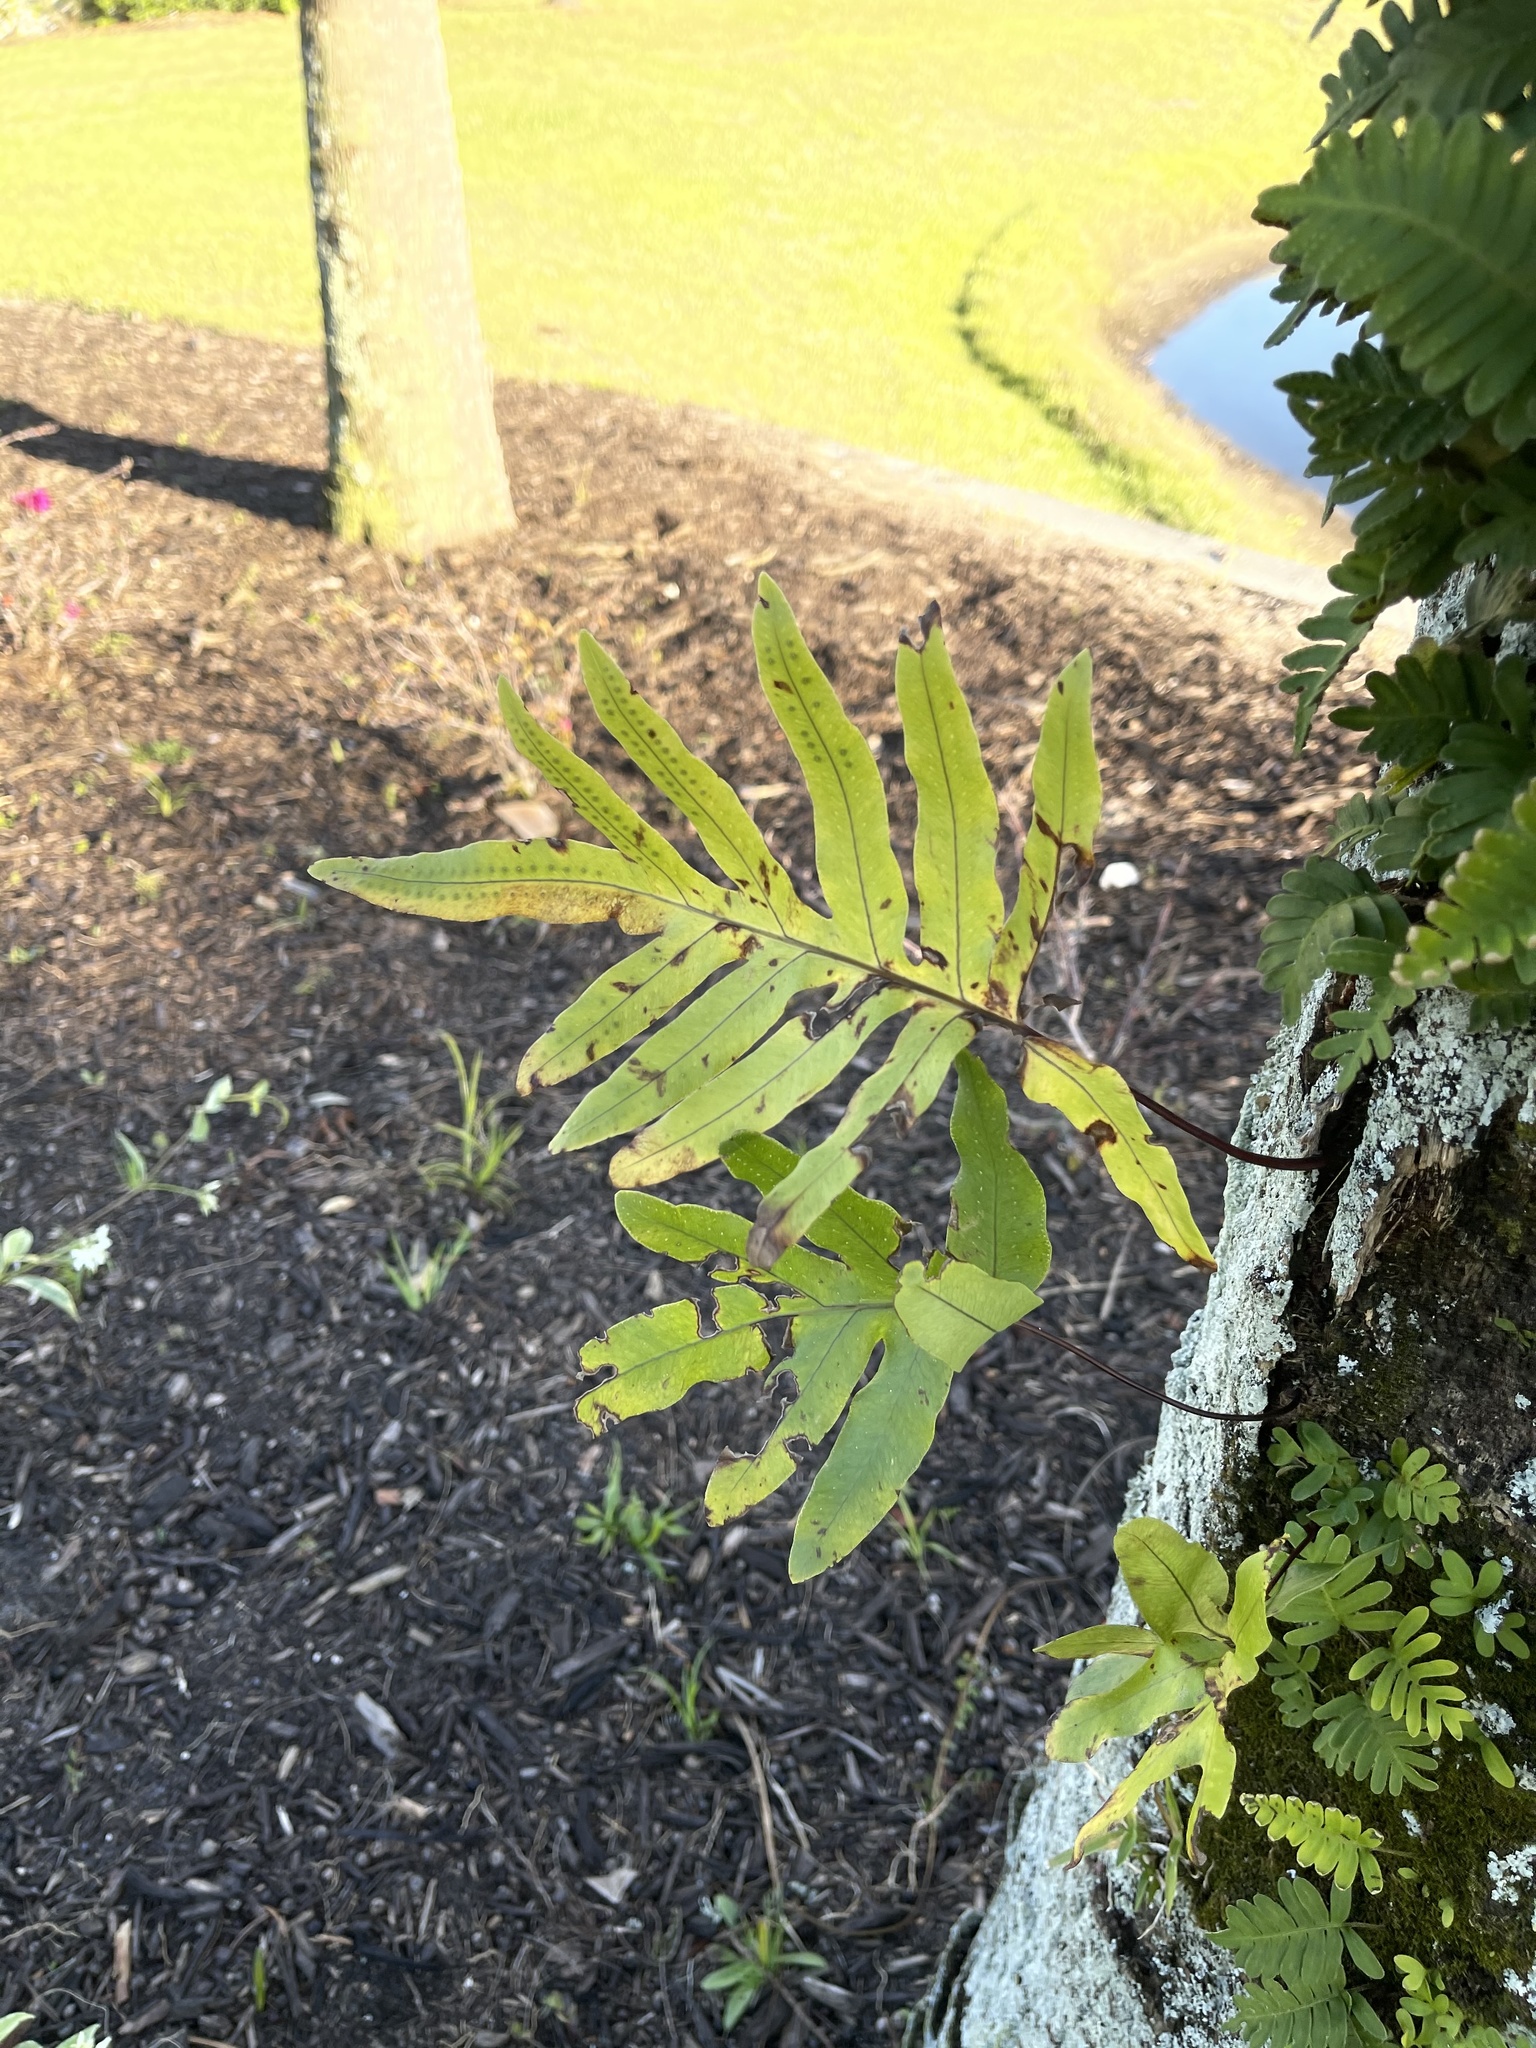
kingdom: Plantae
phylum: Tracheophyta
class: Polypodiopsida
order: Polypodiales
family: Polypodiaceae
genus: Phlebodium
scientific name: Phlebodium aureum
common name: Gold-foot fern
